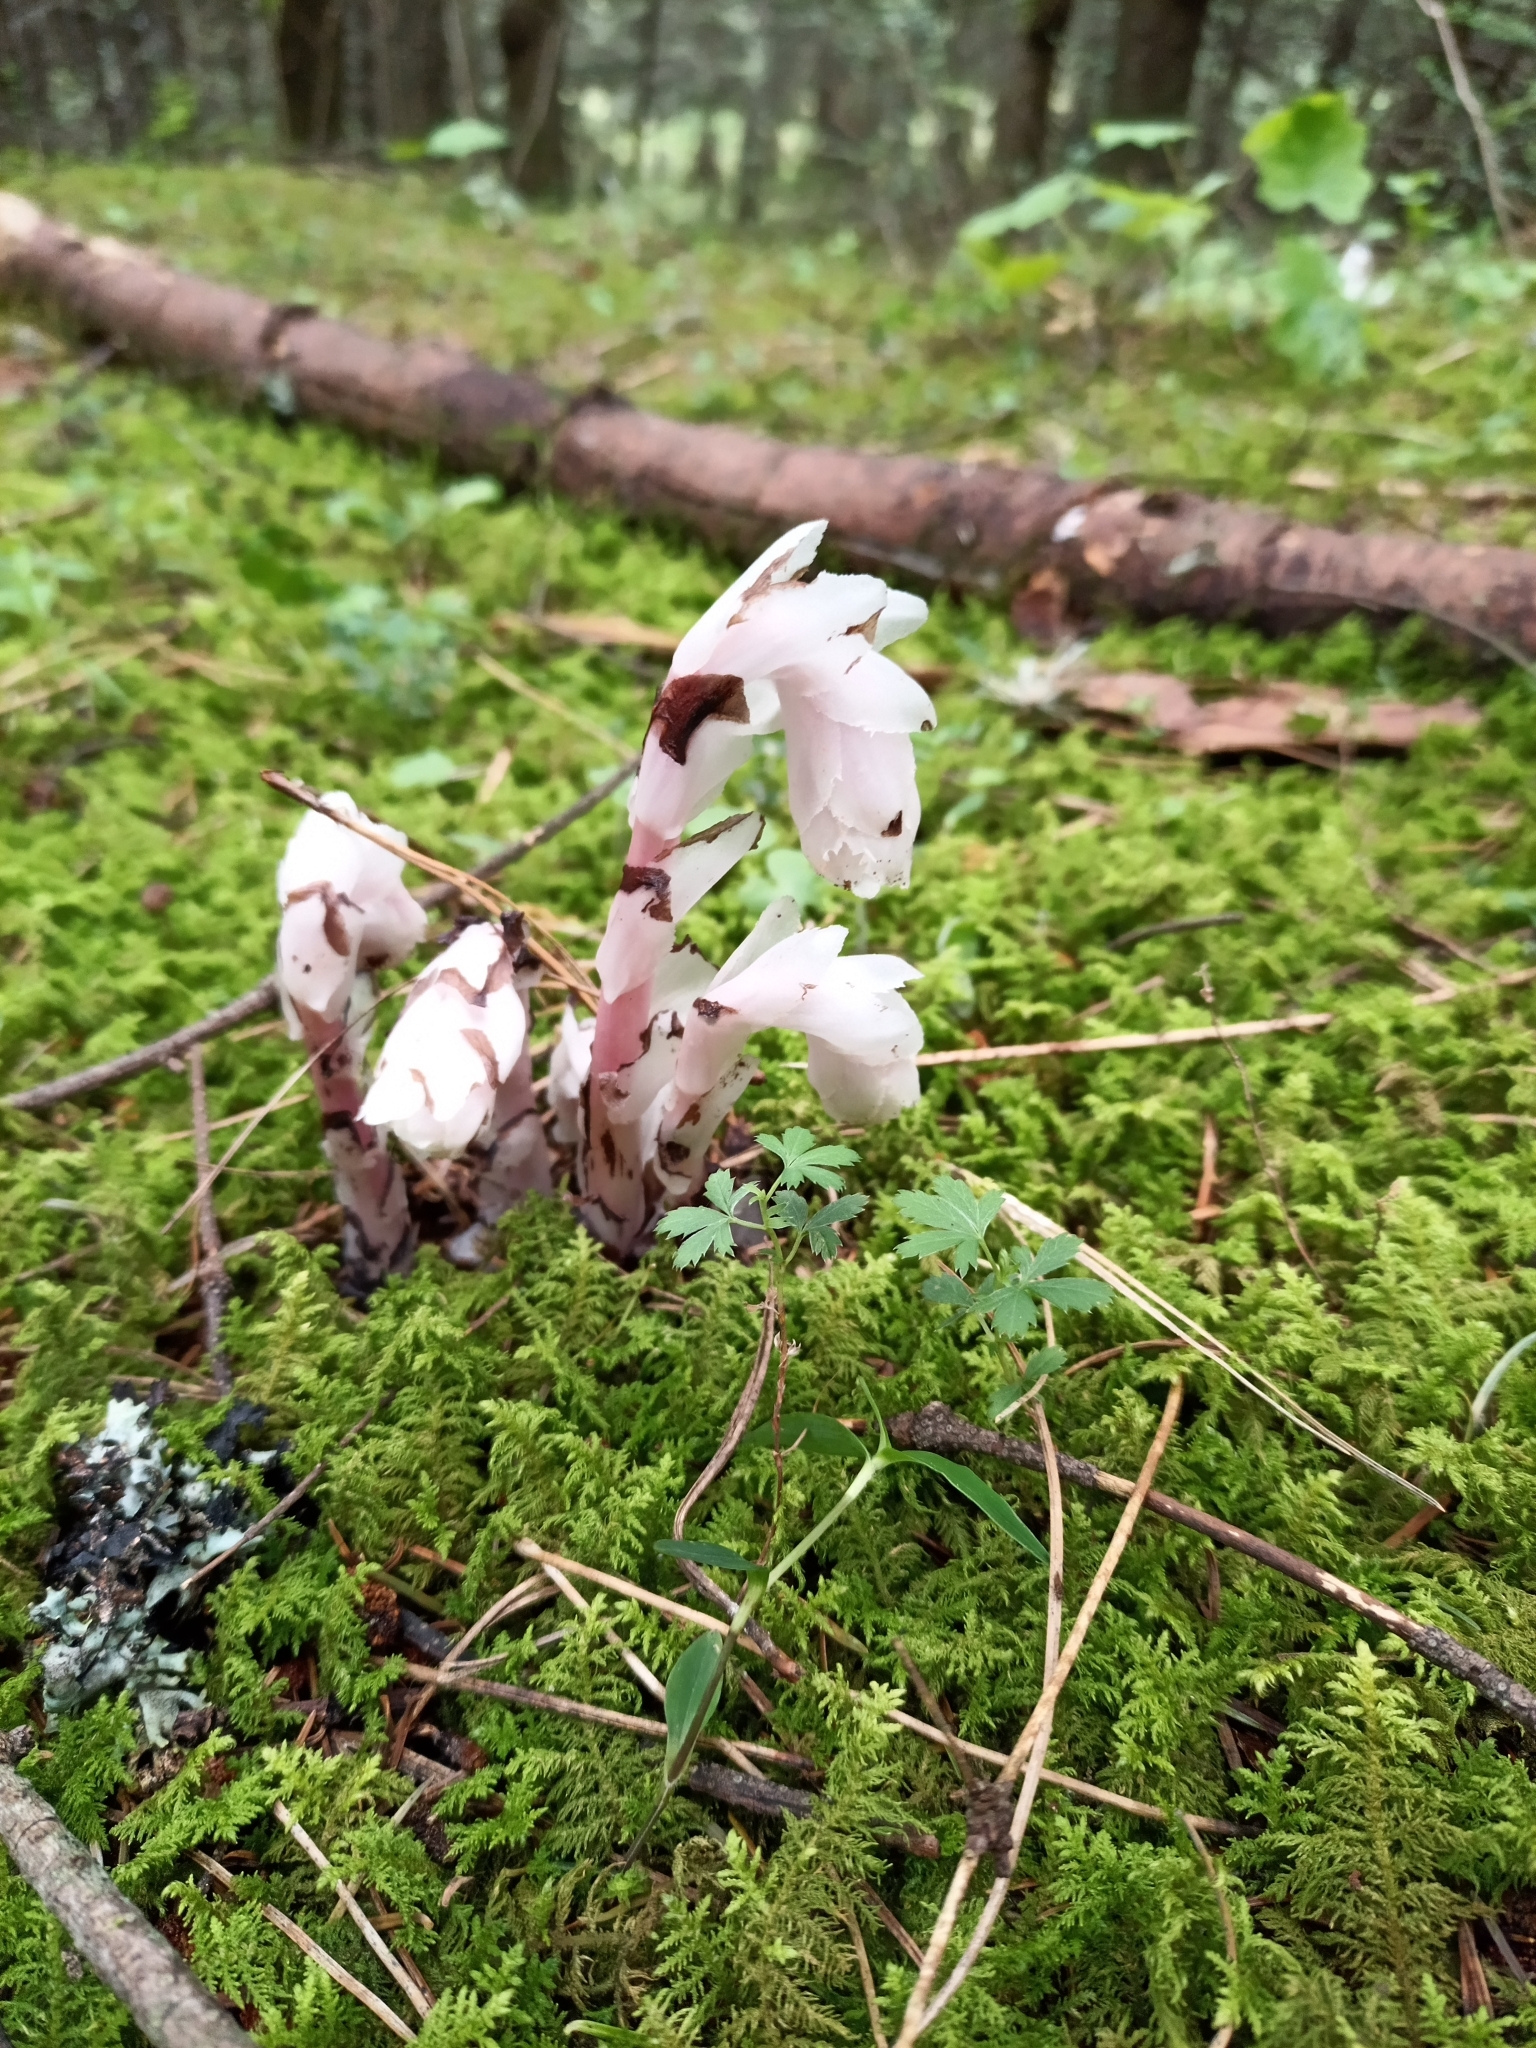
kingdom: Plantae
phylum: Tracheophyta
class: Magnoliopsida
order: Ericales
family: Ericaceae
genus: Monotropa
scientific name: Monotropa uniflora
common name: Convulsion root
